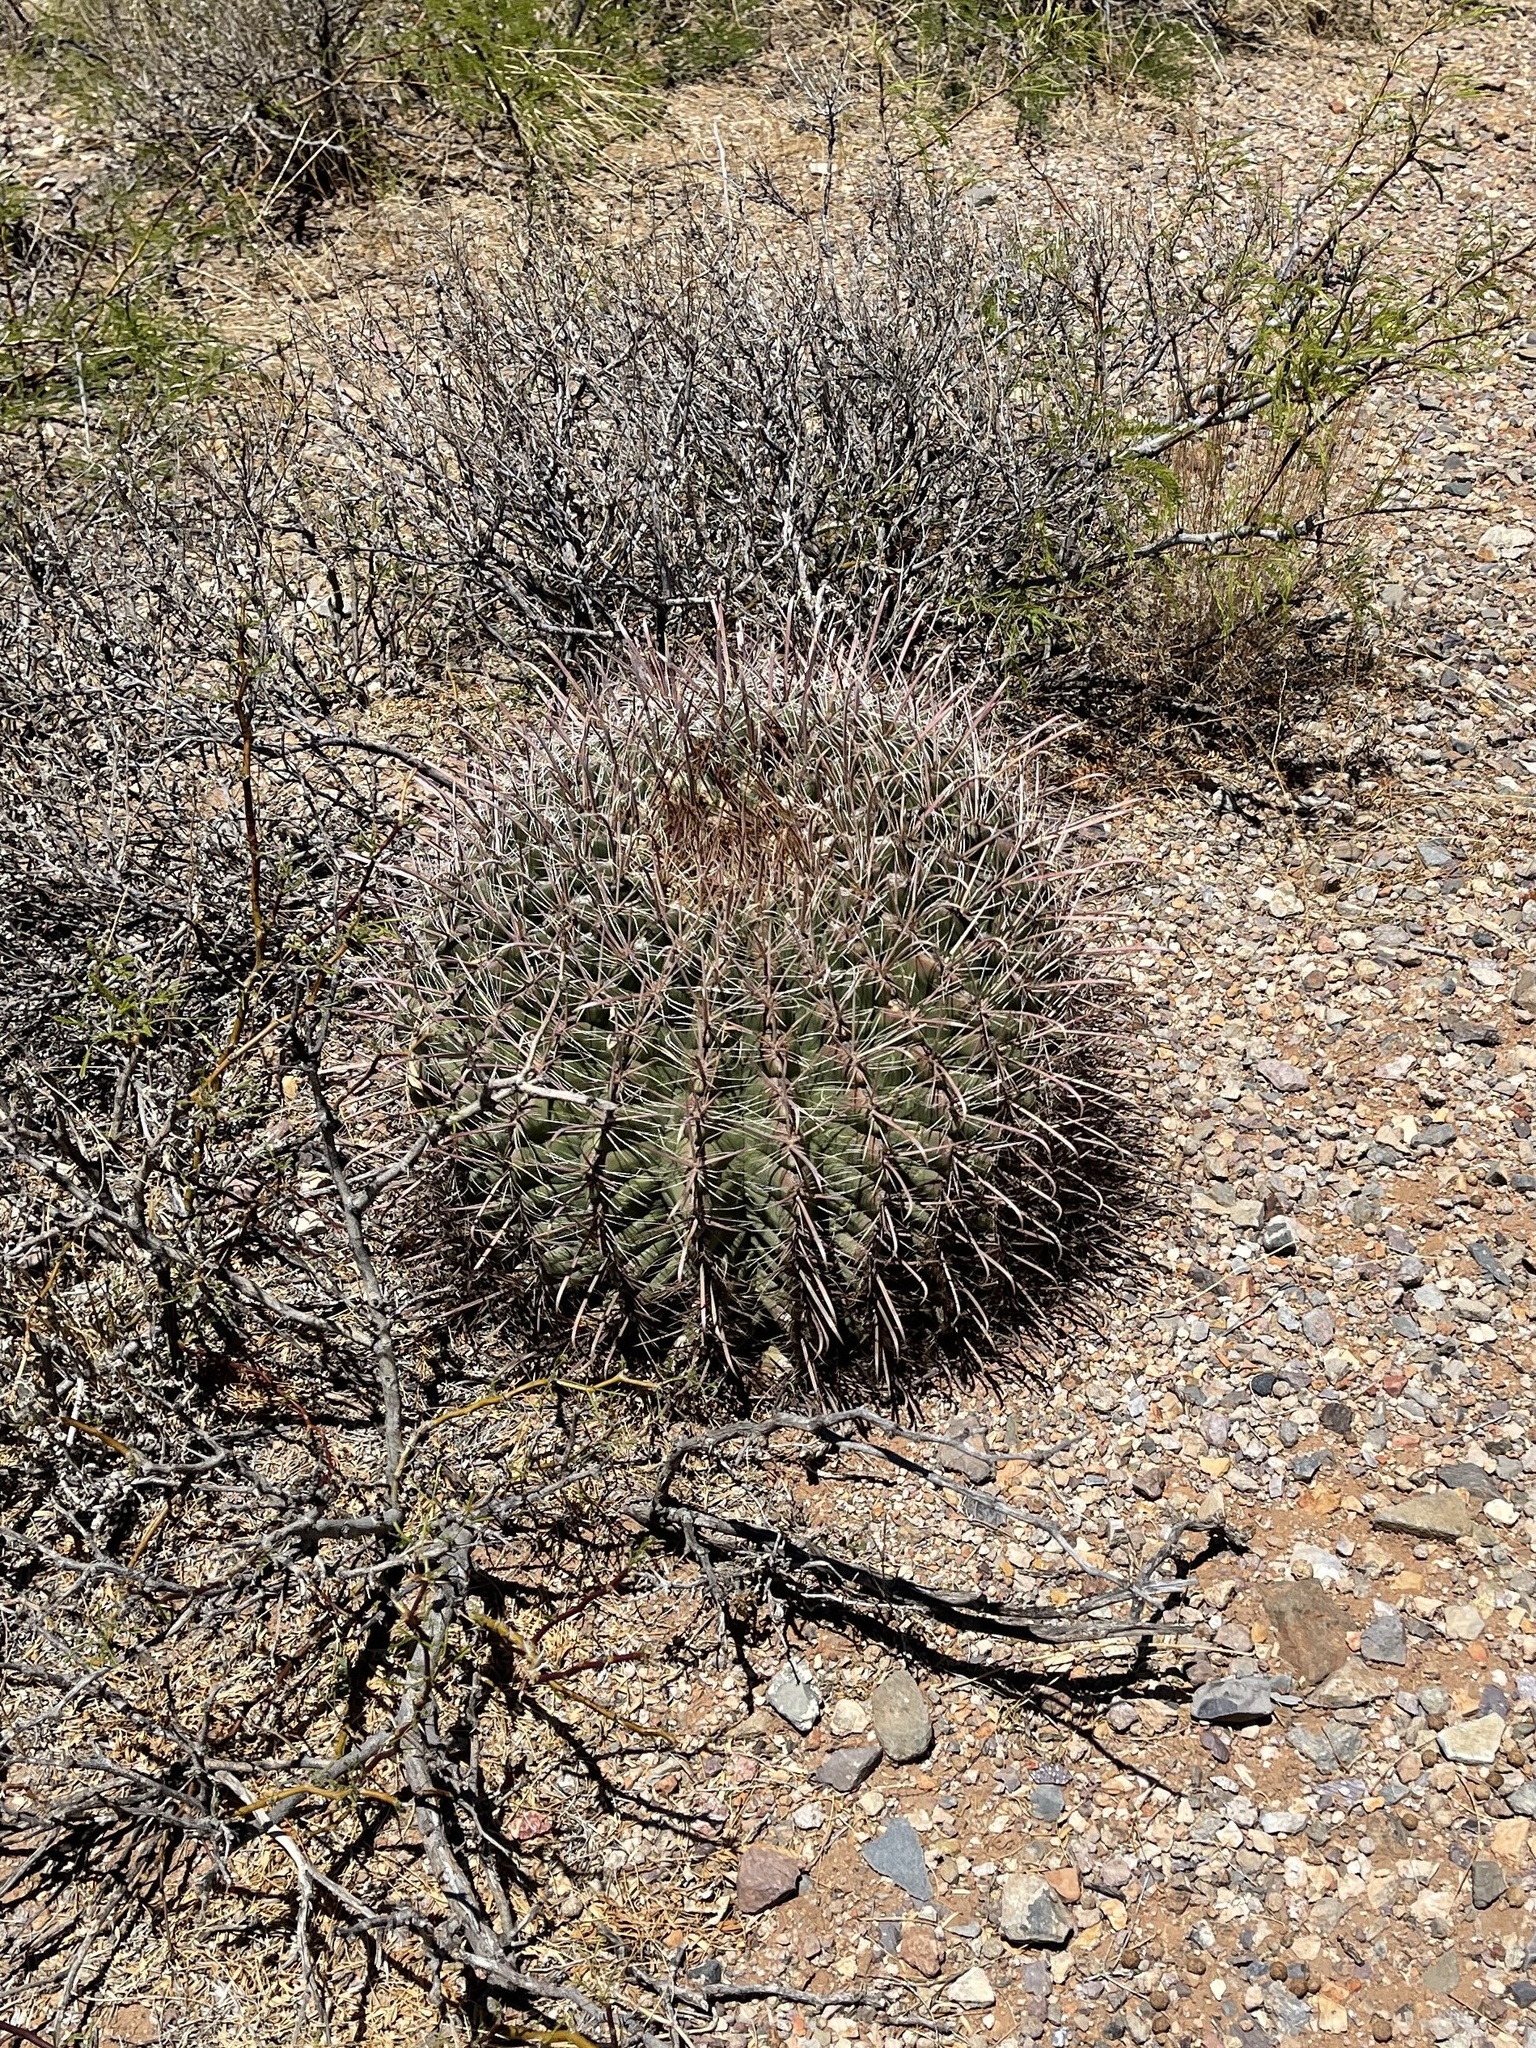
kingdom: Plantae
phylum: Tracheophyta
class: Magnoliopsida
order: Caryophyllales
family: Cactaceae
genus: Ferocactus
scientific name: Ferocactus wislizeni
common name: Candy barrel cactus
